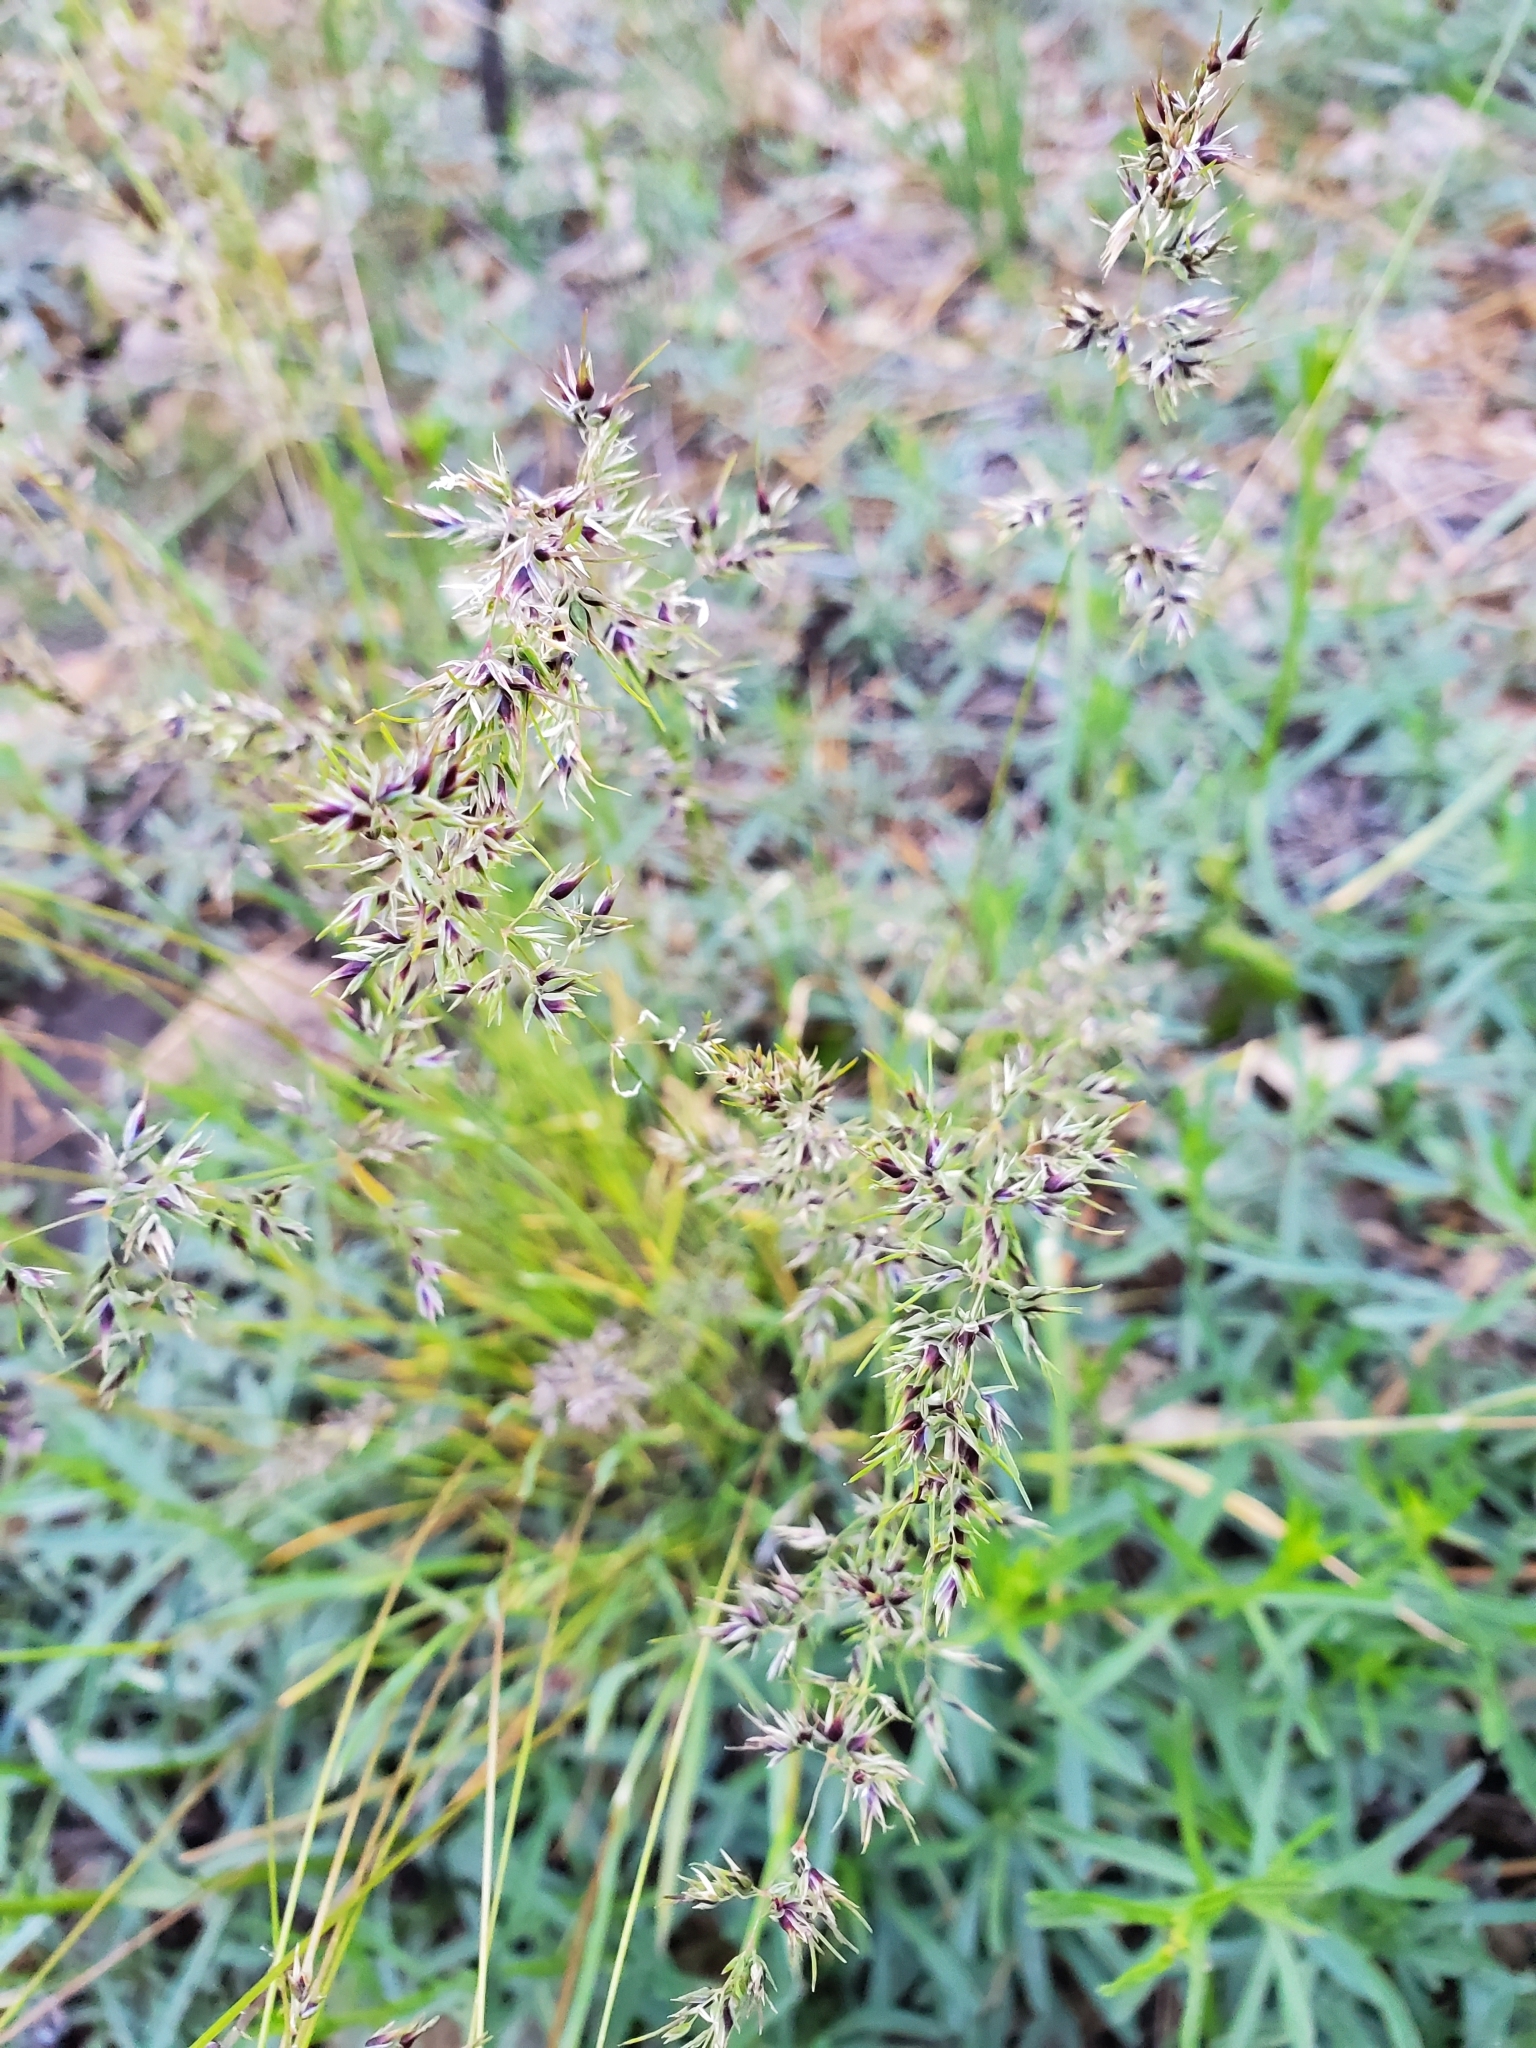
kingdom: Plantae
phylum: Tracheophyta
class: Liliopsida
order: Poales
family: Poaceae
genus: Poa
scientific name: Poa bulbosa
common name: Bulbous bluegrass
